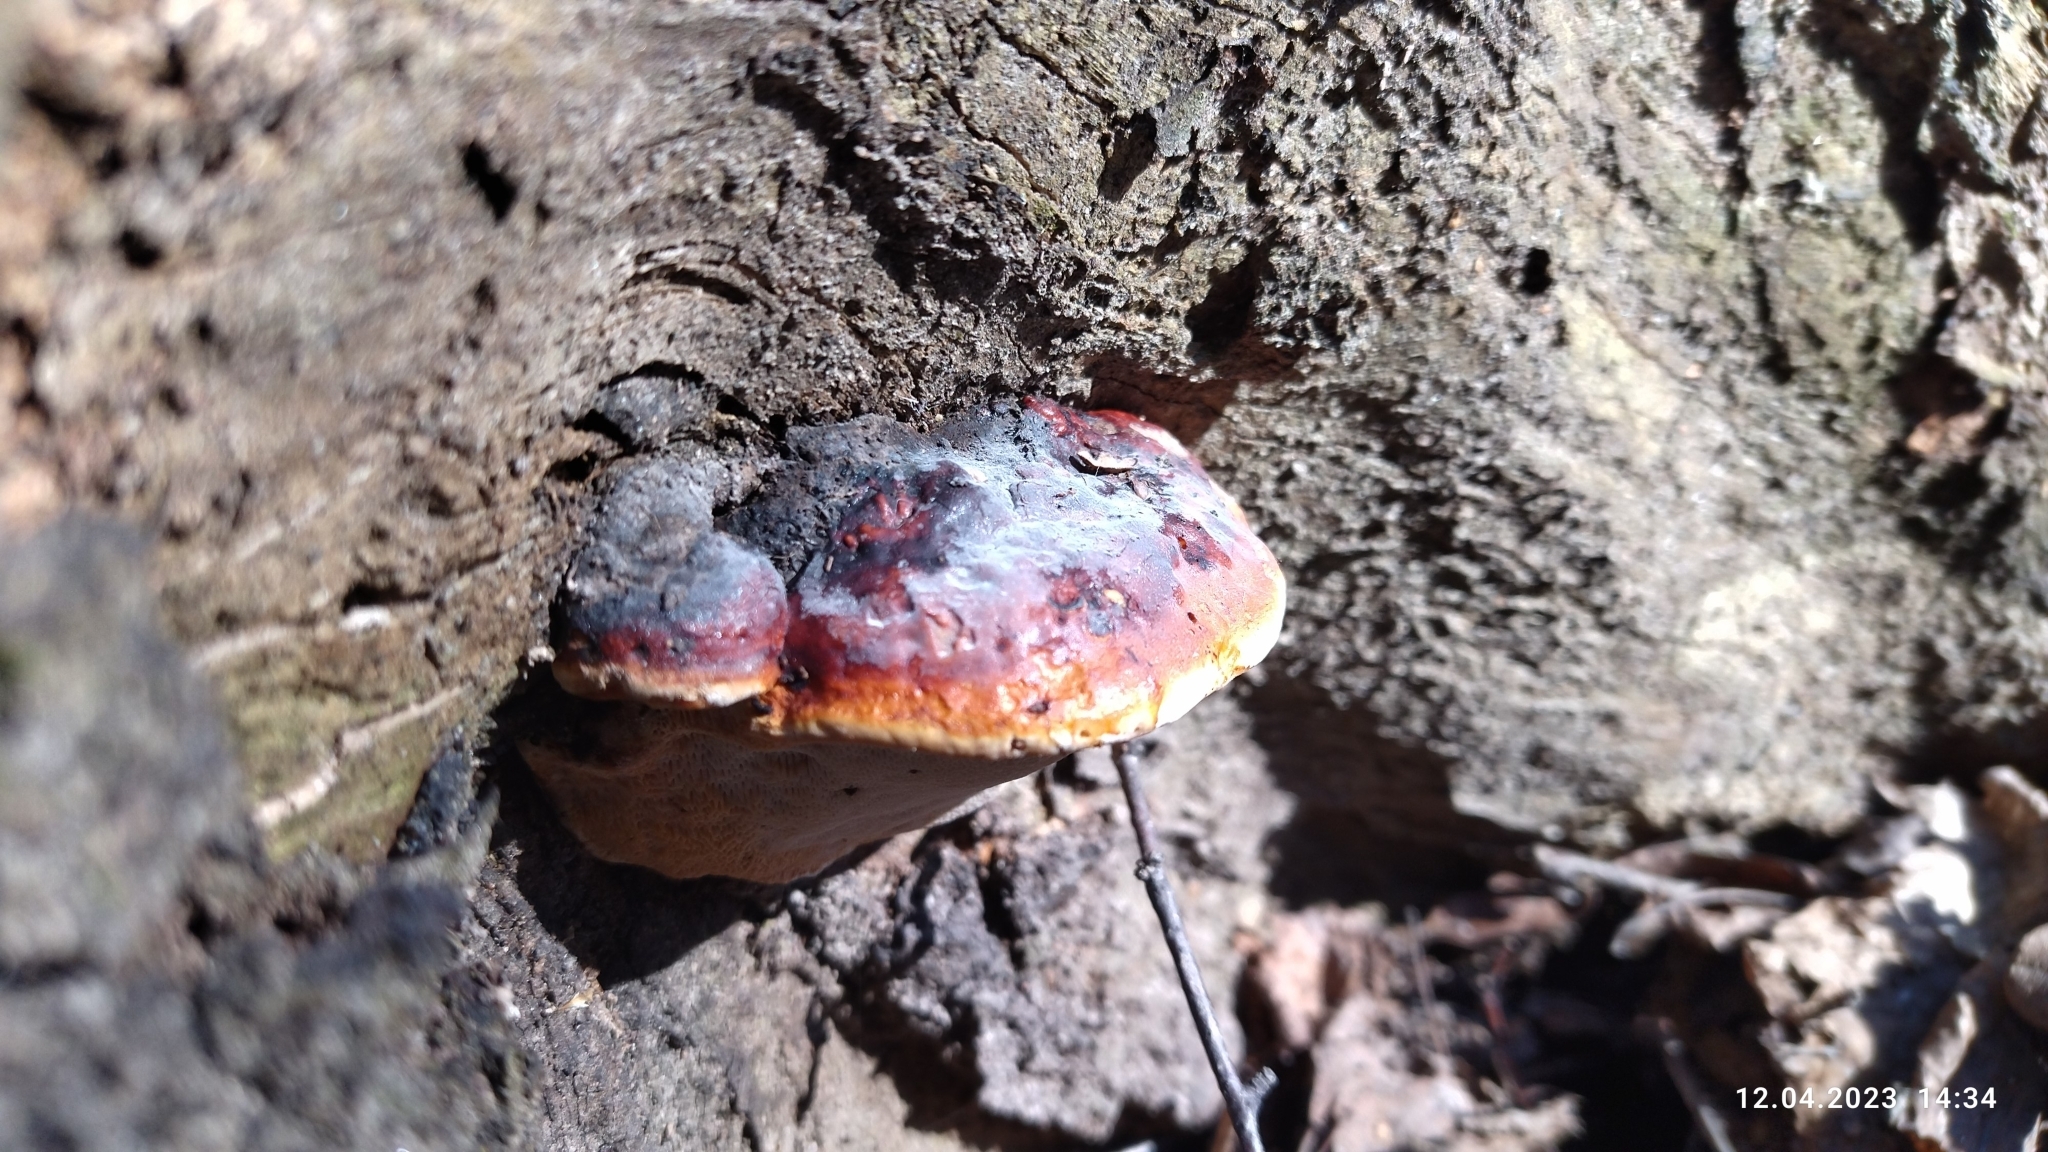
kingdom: Fungi
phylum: Basidiomycota
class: Agaricomycetes
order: Polyporales
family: Fomitopsidaceae
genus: Fomitopsis
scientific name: Fomitopsis pinicola
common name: Red-belted bracket
